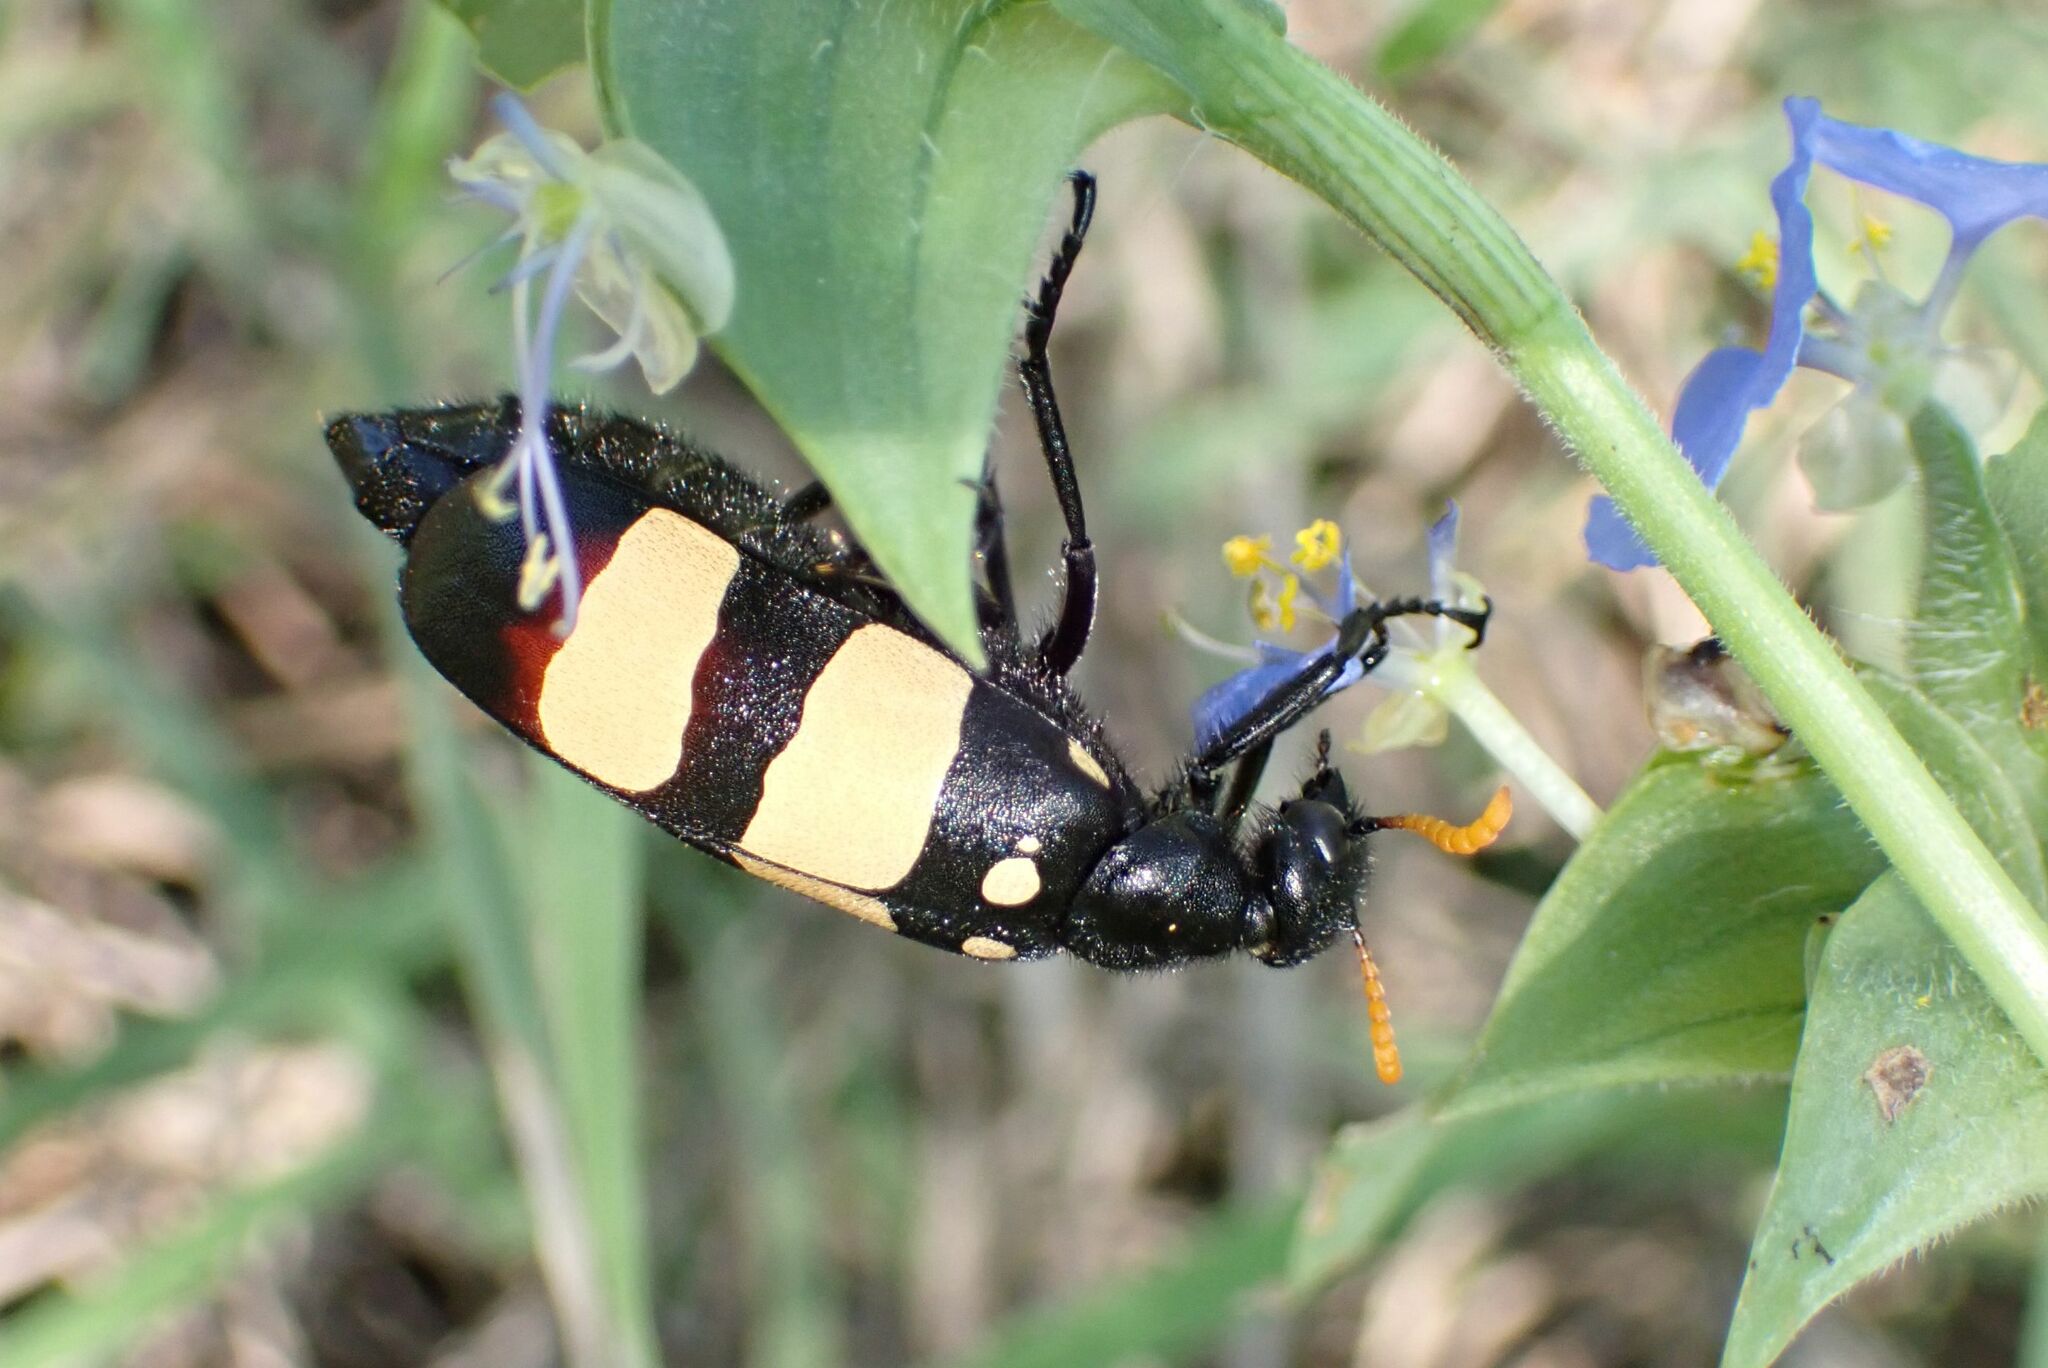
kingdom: Animalia
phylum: Arthropoda
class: Insecta
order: Coleoptera
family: Meloidae
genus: Hycleus
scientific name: Hycleus
